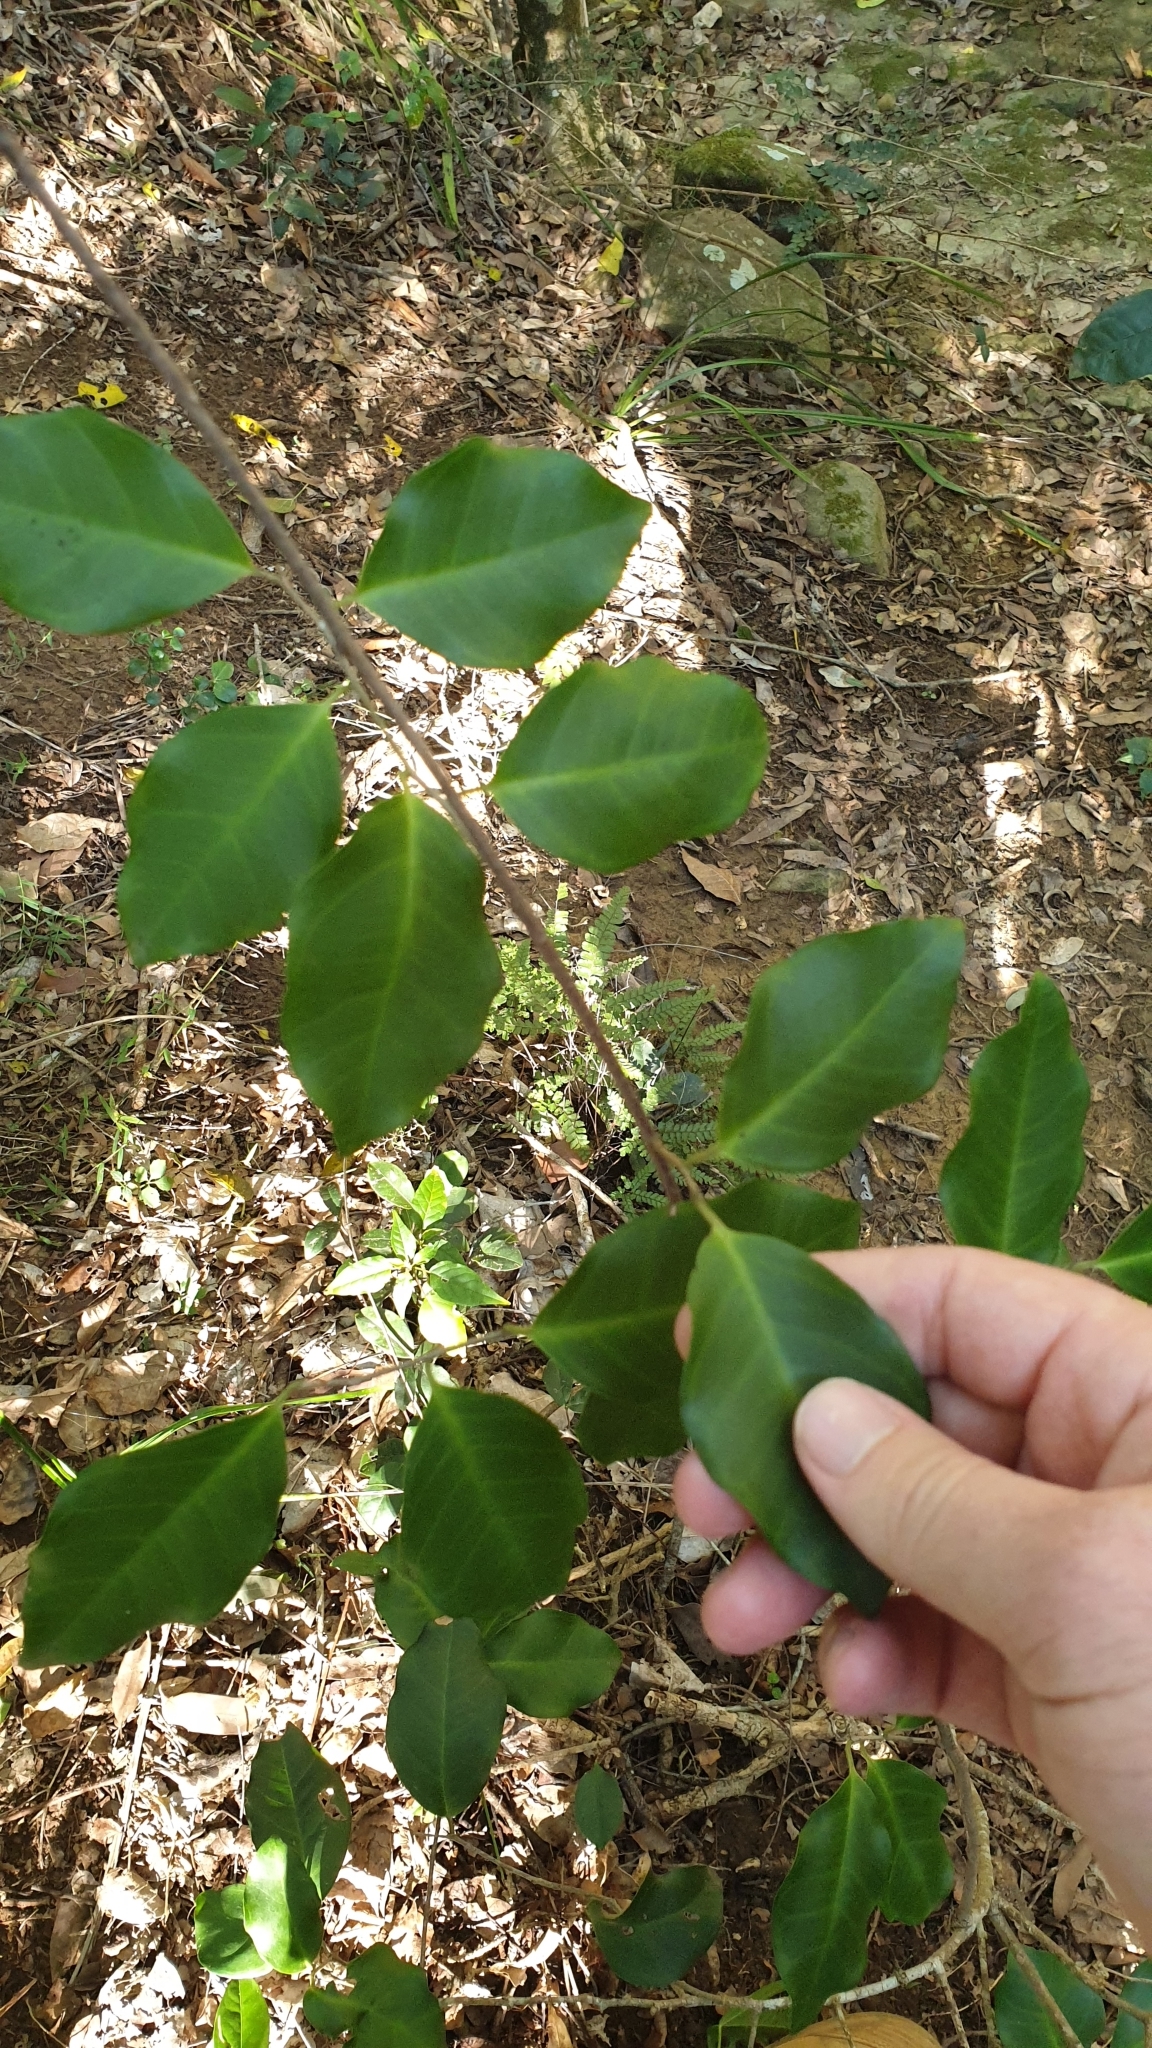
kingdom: Plantae
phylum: Tracheophyta
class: Magnoliopsida
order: Ericales
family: Primulaceae
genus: Embelia
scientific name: Embelia australiana
